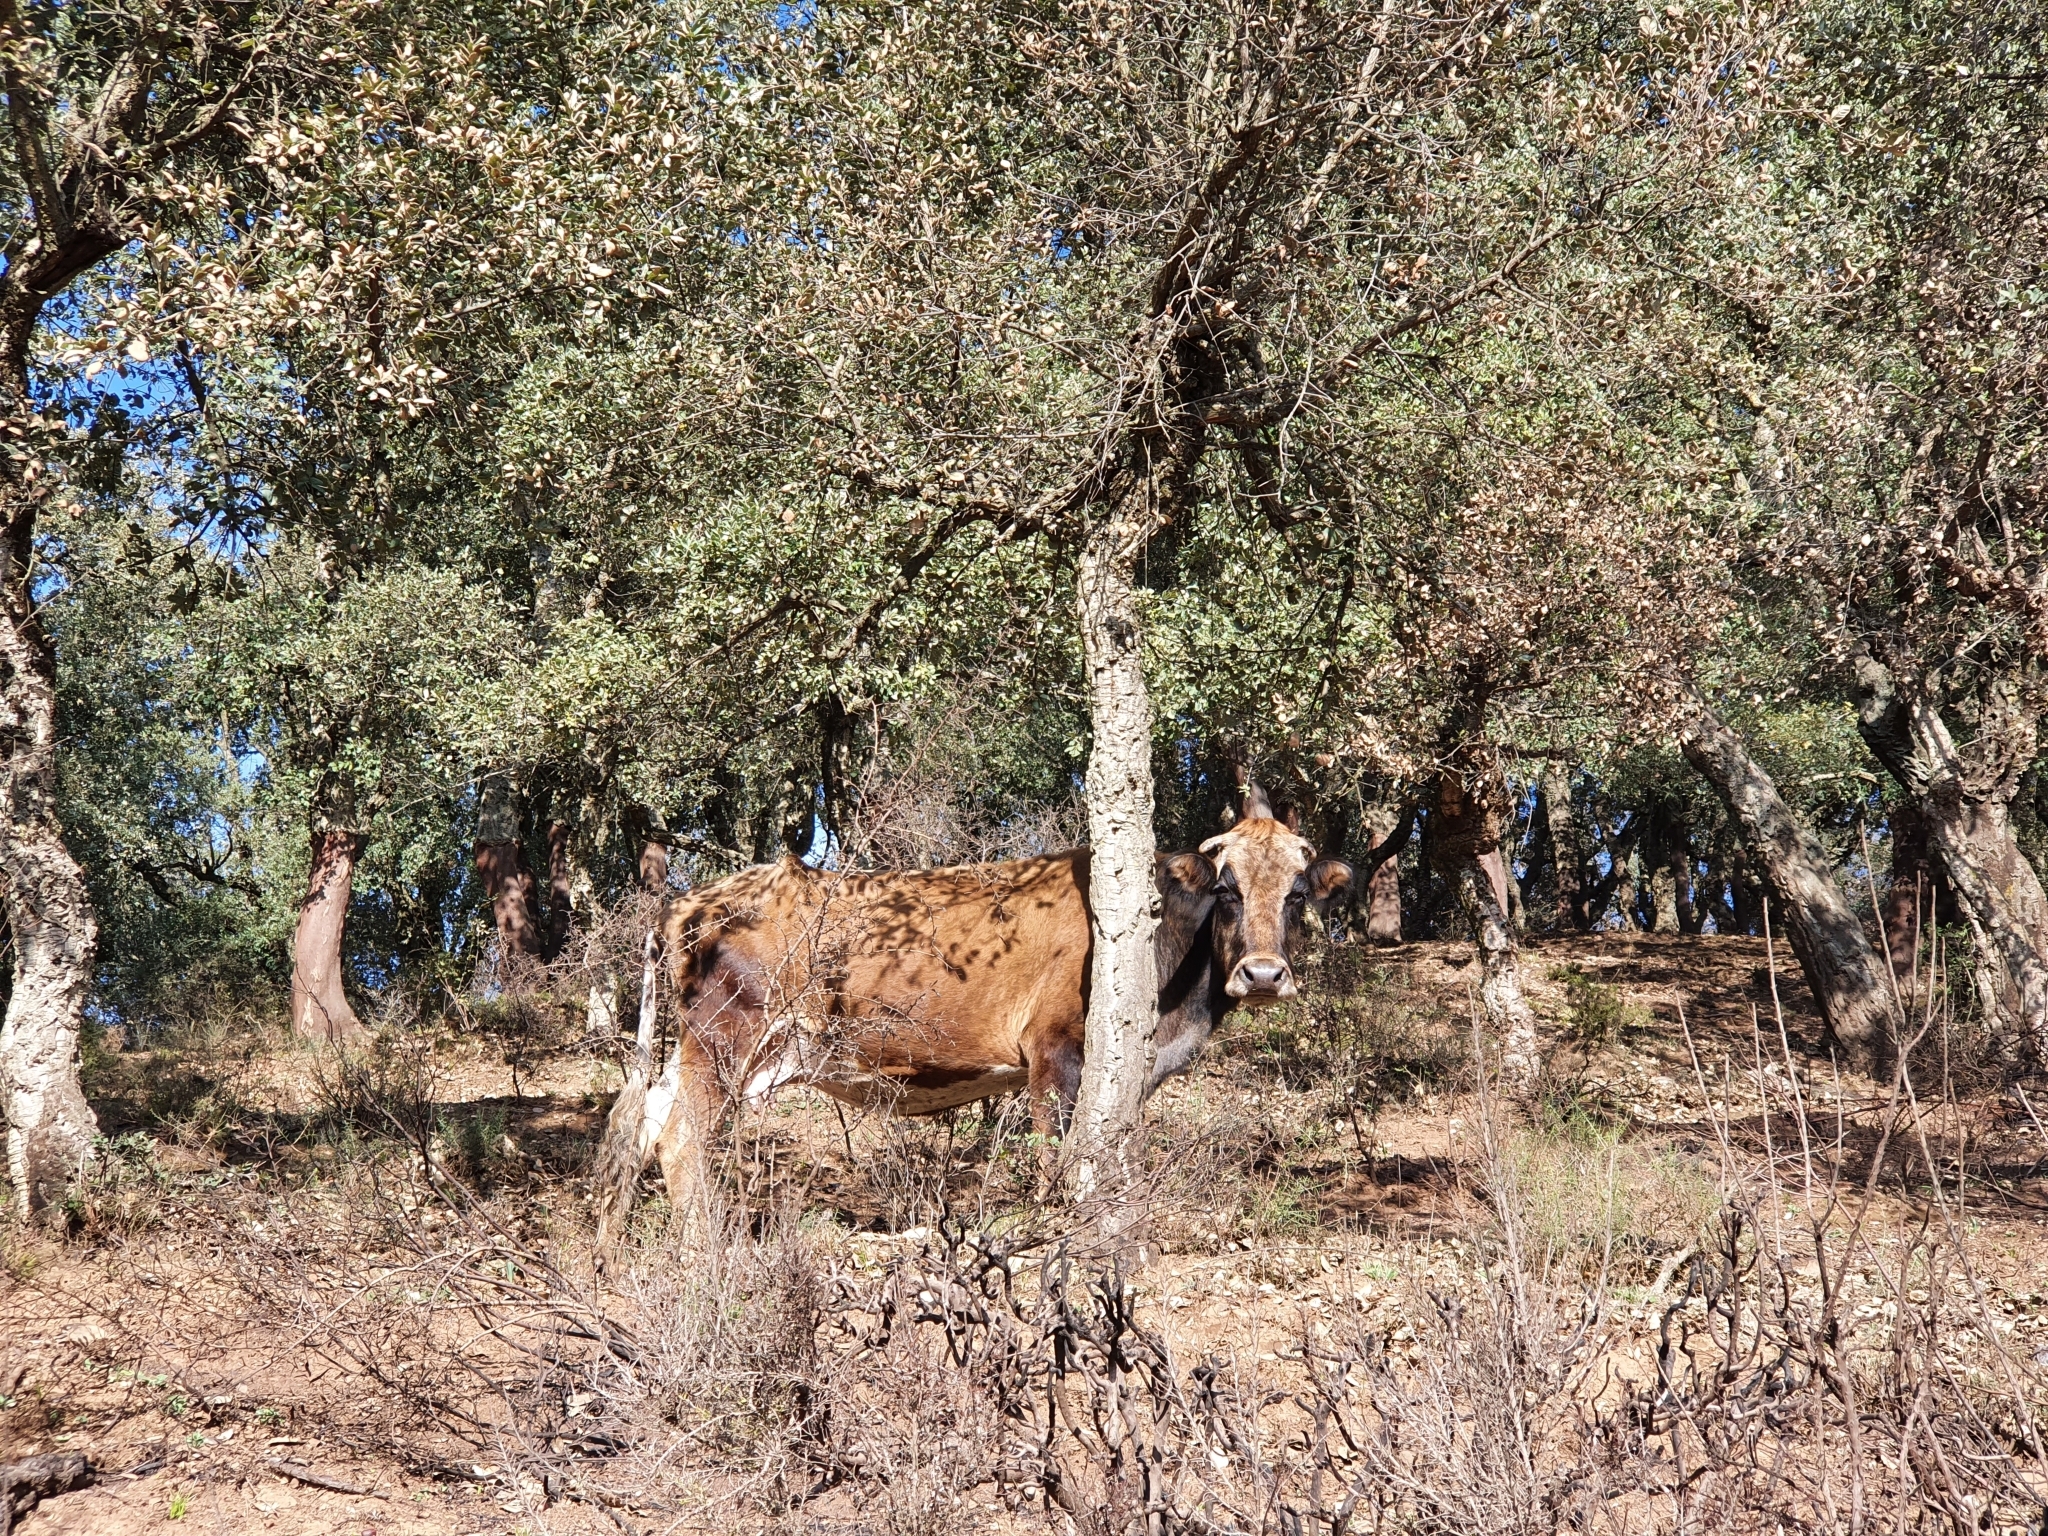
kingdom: Animalia
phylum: Chordata
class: Mammalia
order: Artiodactyla
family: Bovidae
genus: Bos
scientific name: Bos taurus
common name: Domesticated cattle
